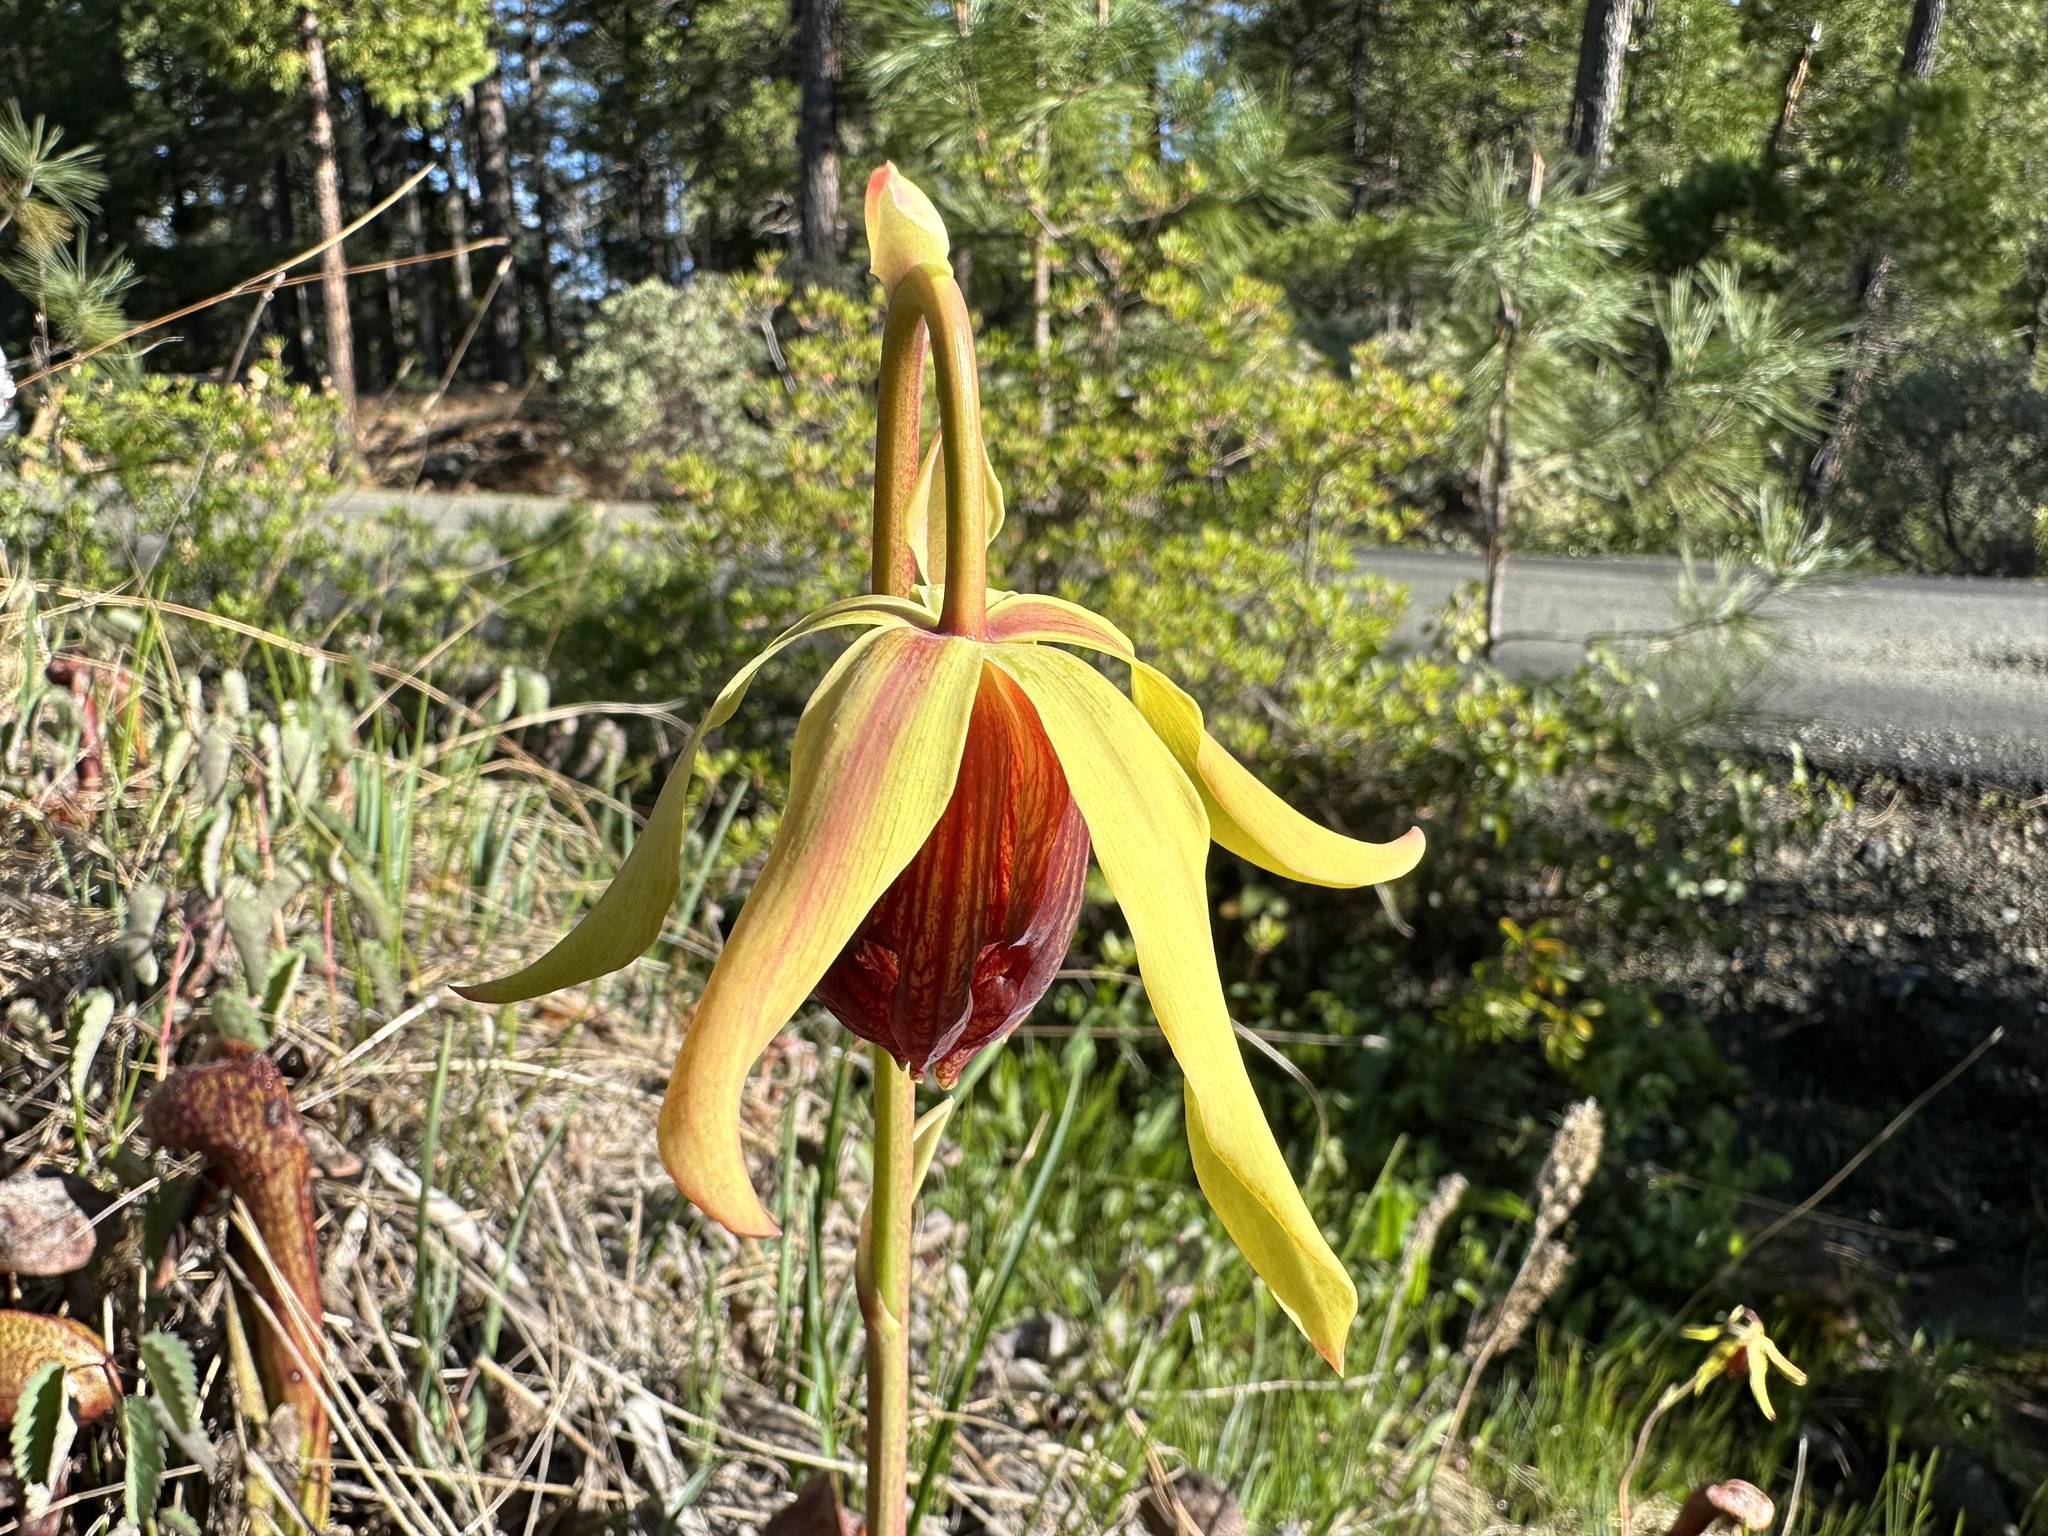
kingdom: Plantae
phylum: Tracheophyta
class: Magnoliopsida
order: Ericales
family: Sarraceniaceae
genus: Darlingtonia
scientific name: Darlingtonia californica
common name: California pitcher plant
